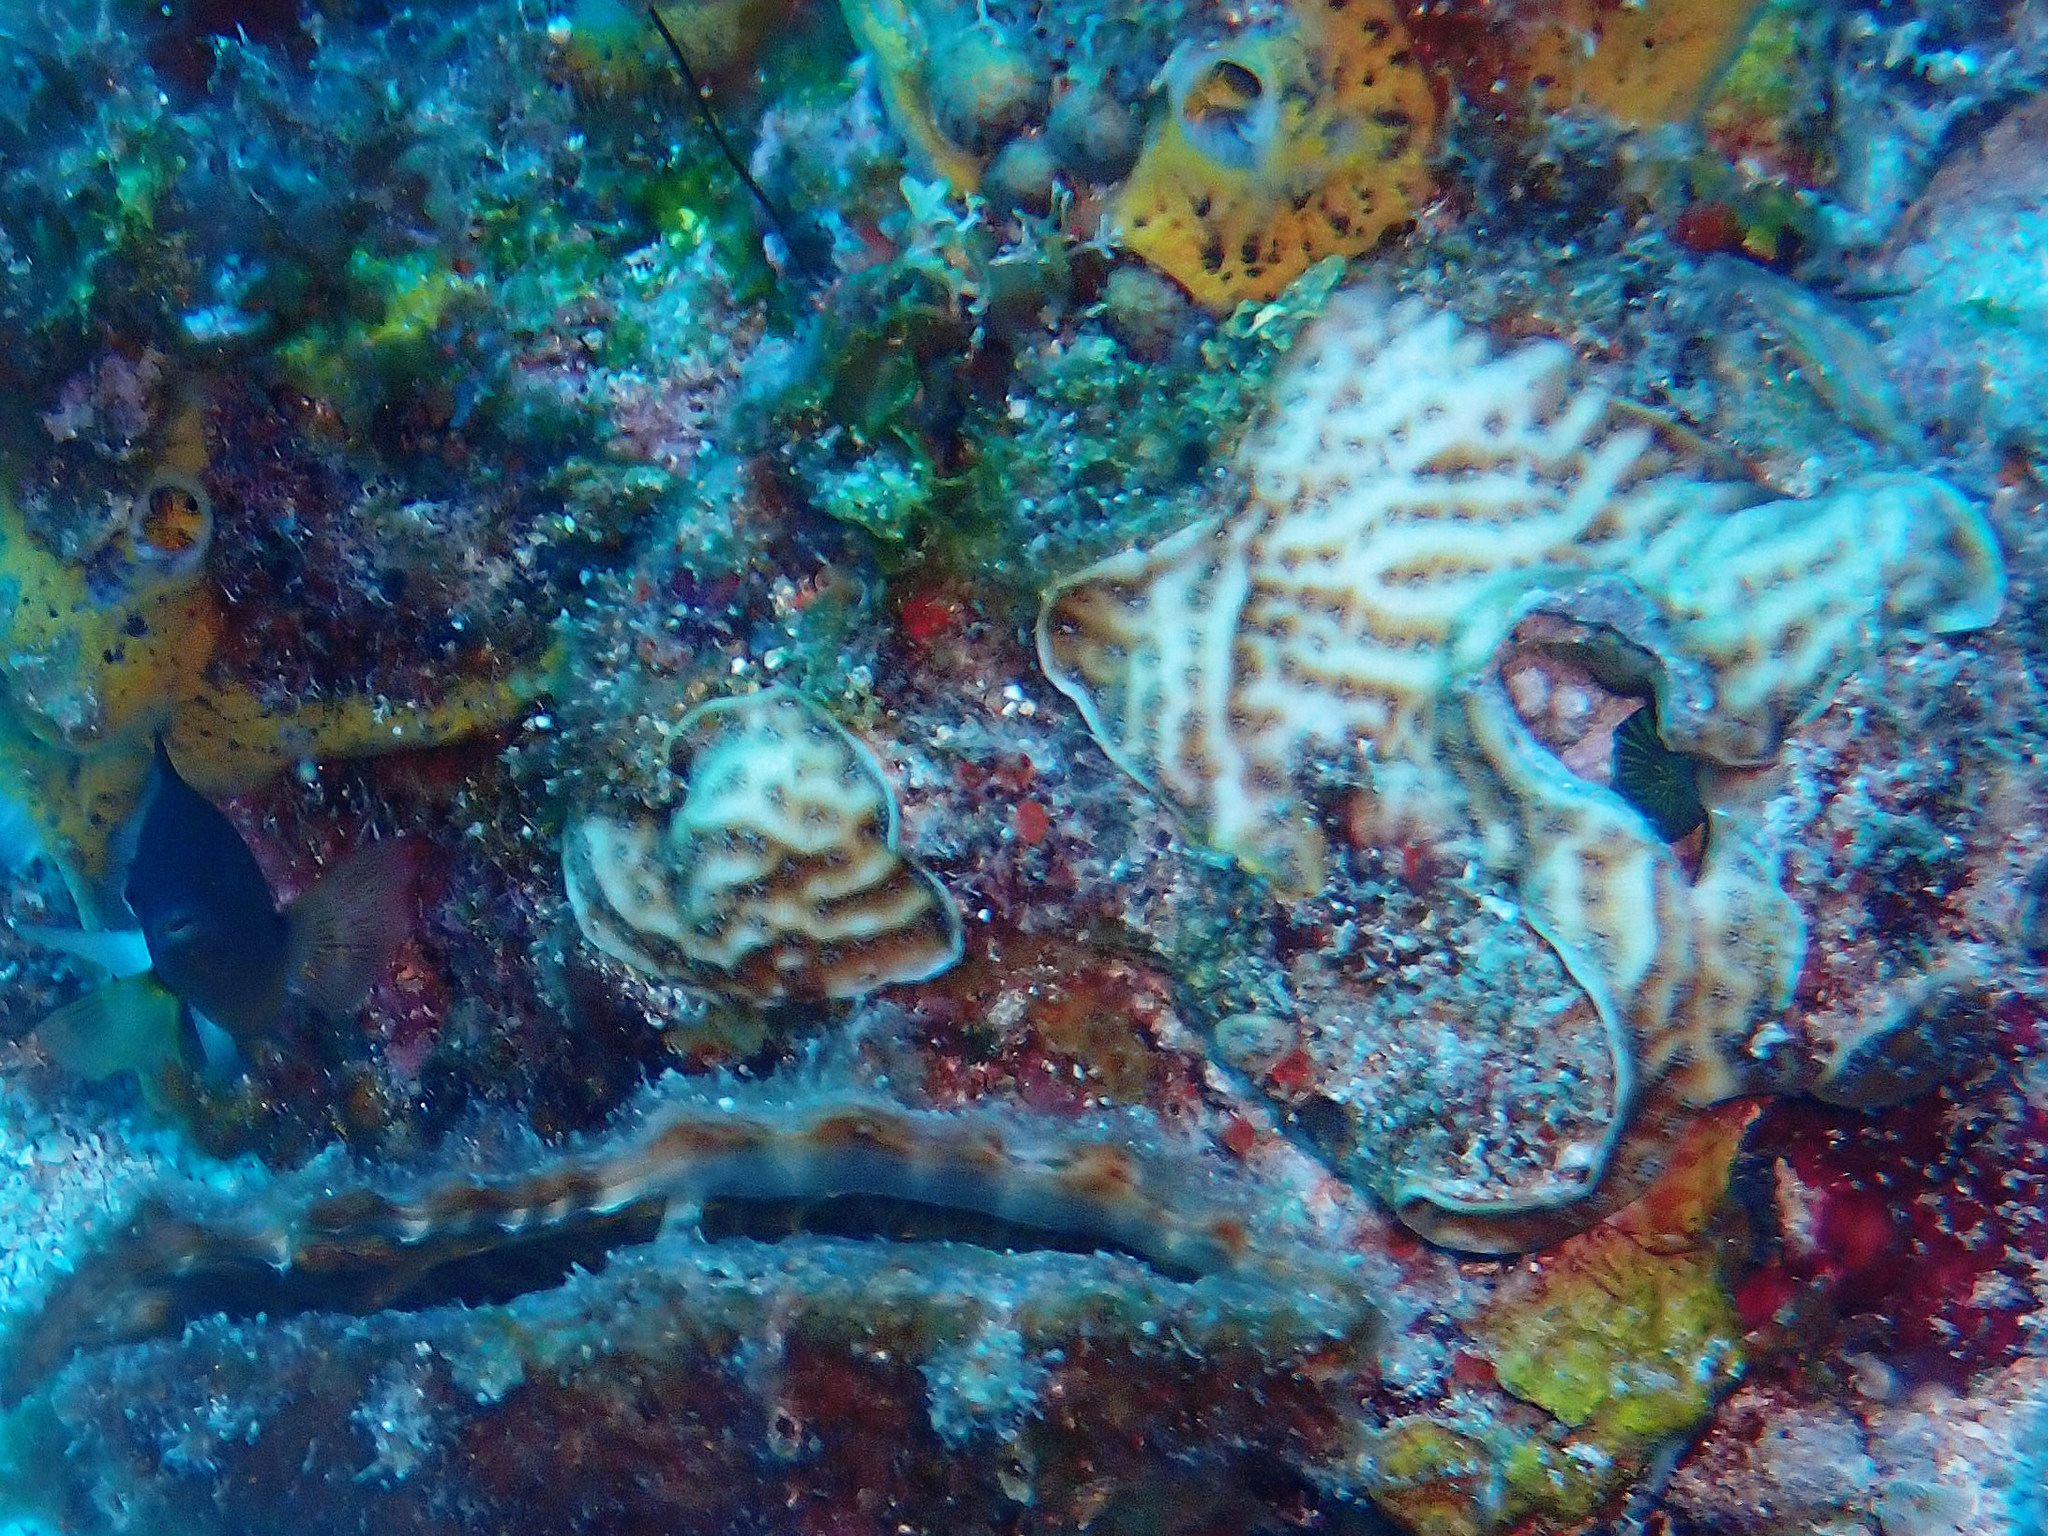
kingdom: Animalia
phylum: Cnidaria
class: Anthozoa
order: Scleractinia
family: Agariciidae
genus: Agaricia
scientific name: Agaricia lamarcki
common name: Lamarck's sheet coral
